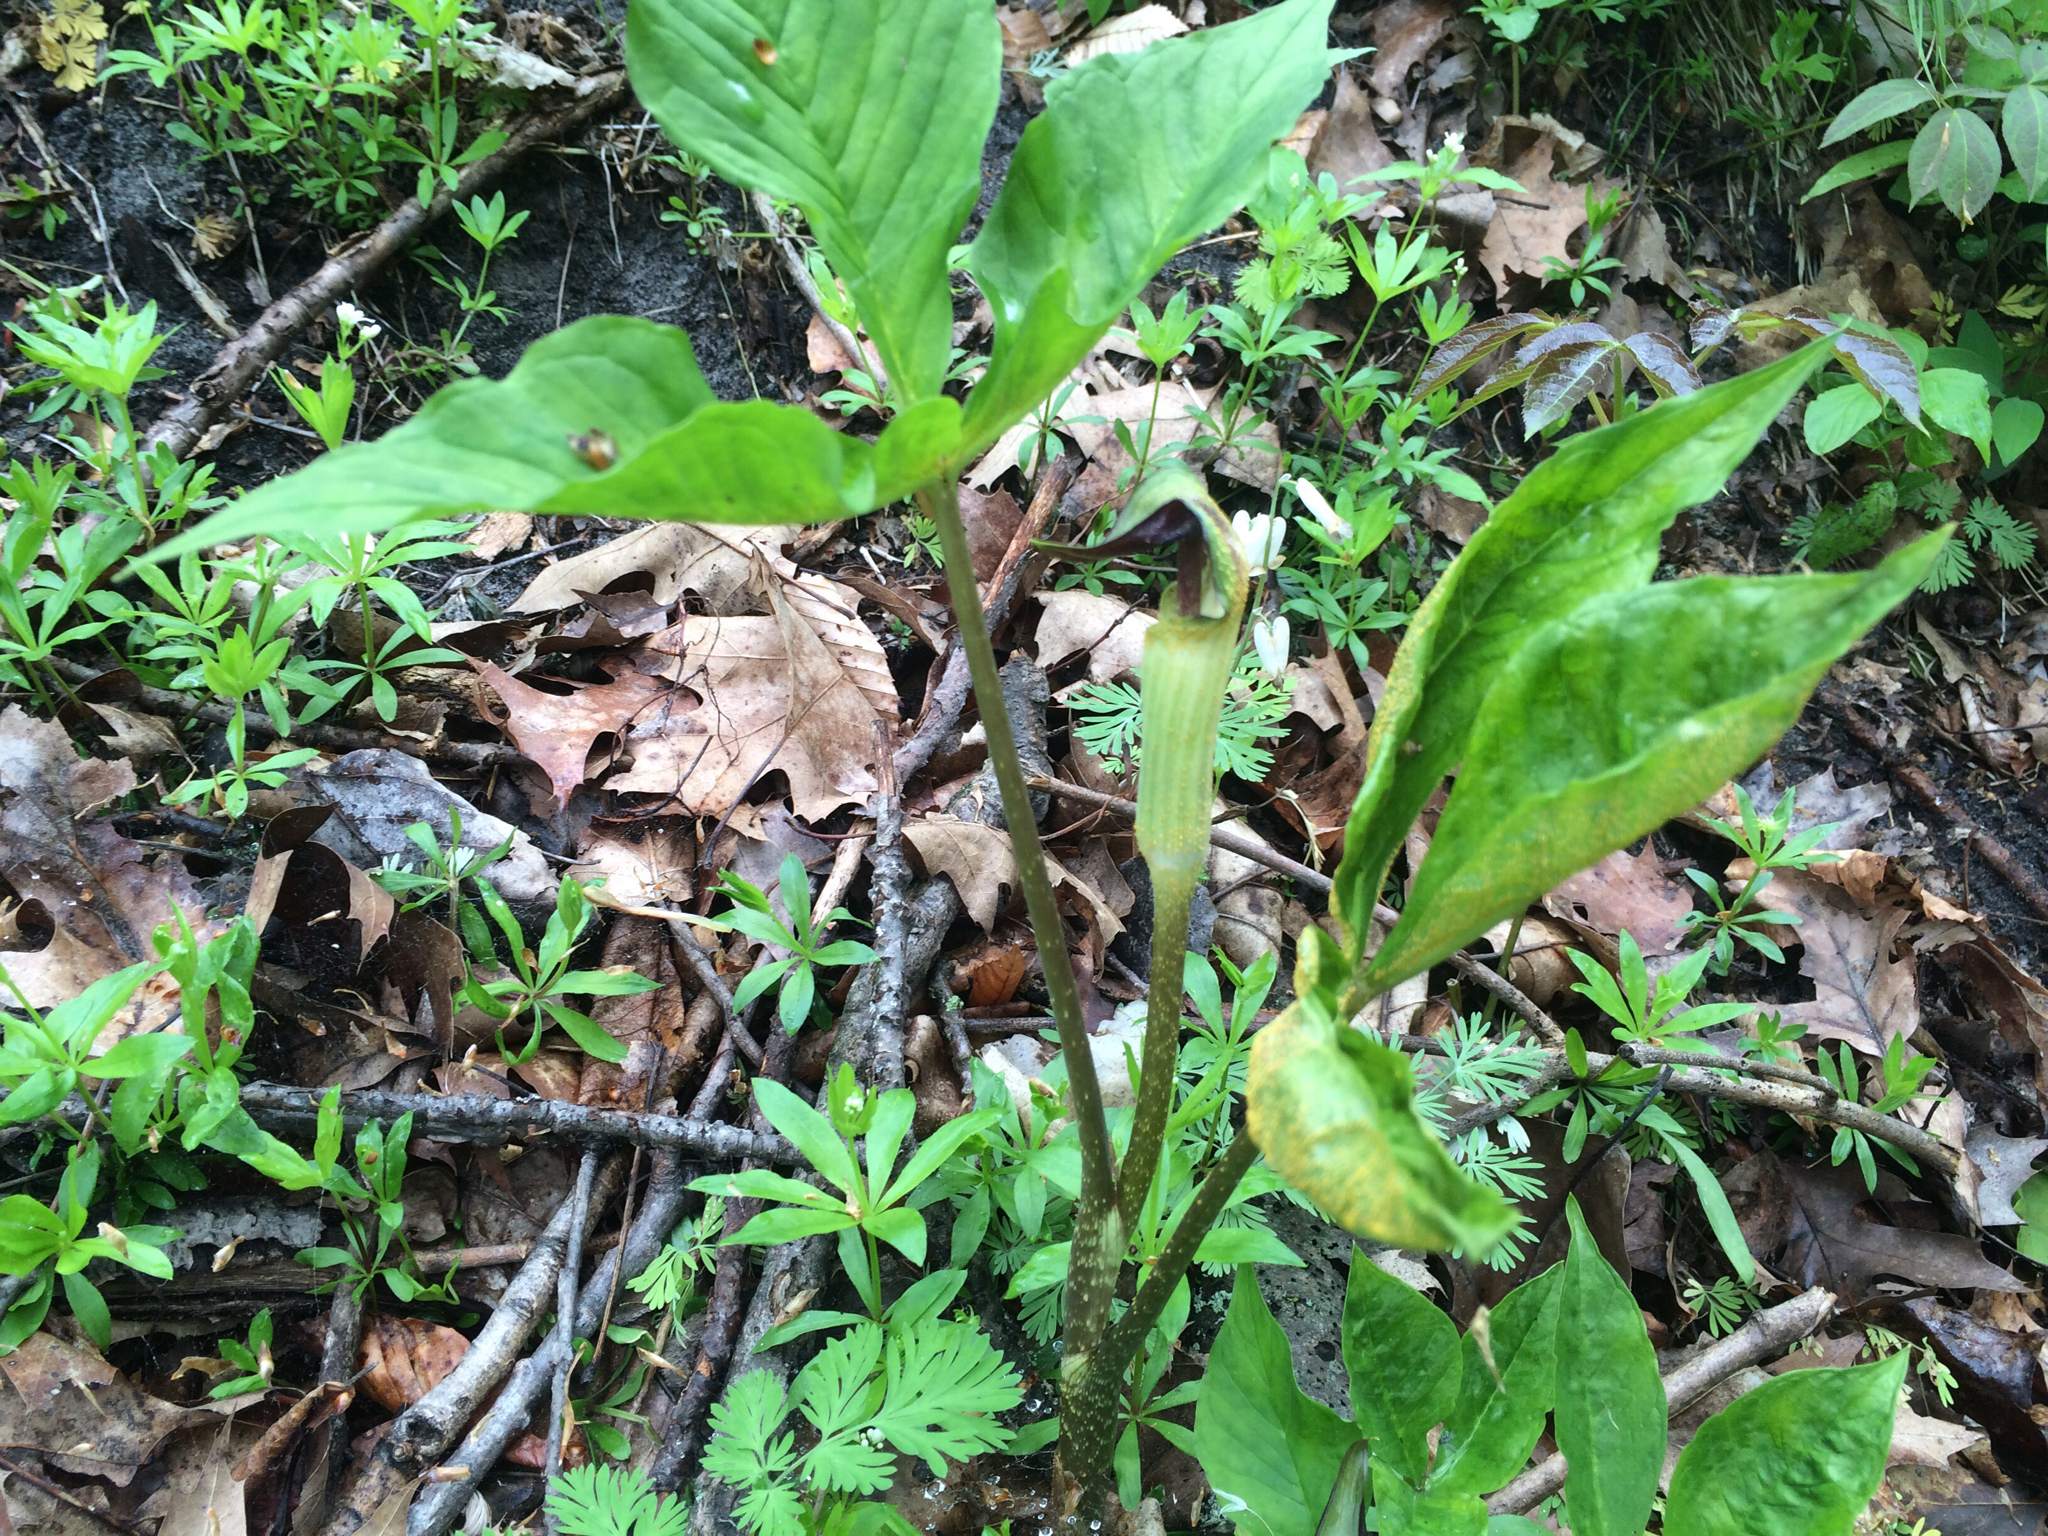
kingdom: Plantae
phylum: Tracheophyta
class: Liliopsida
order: Alismatales
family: Araceae
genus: Arisaema
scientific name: Arisaema triphyllum
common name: Jack-in-the-pulpit
